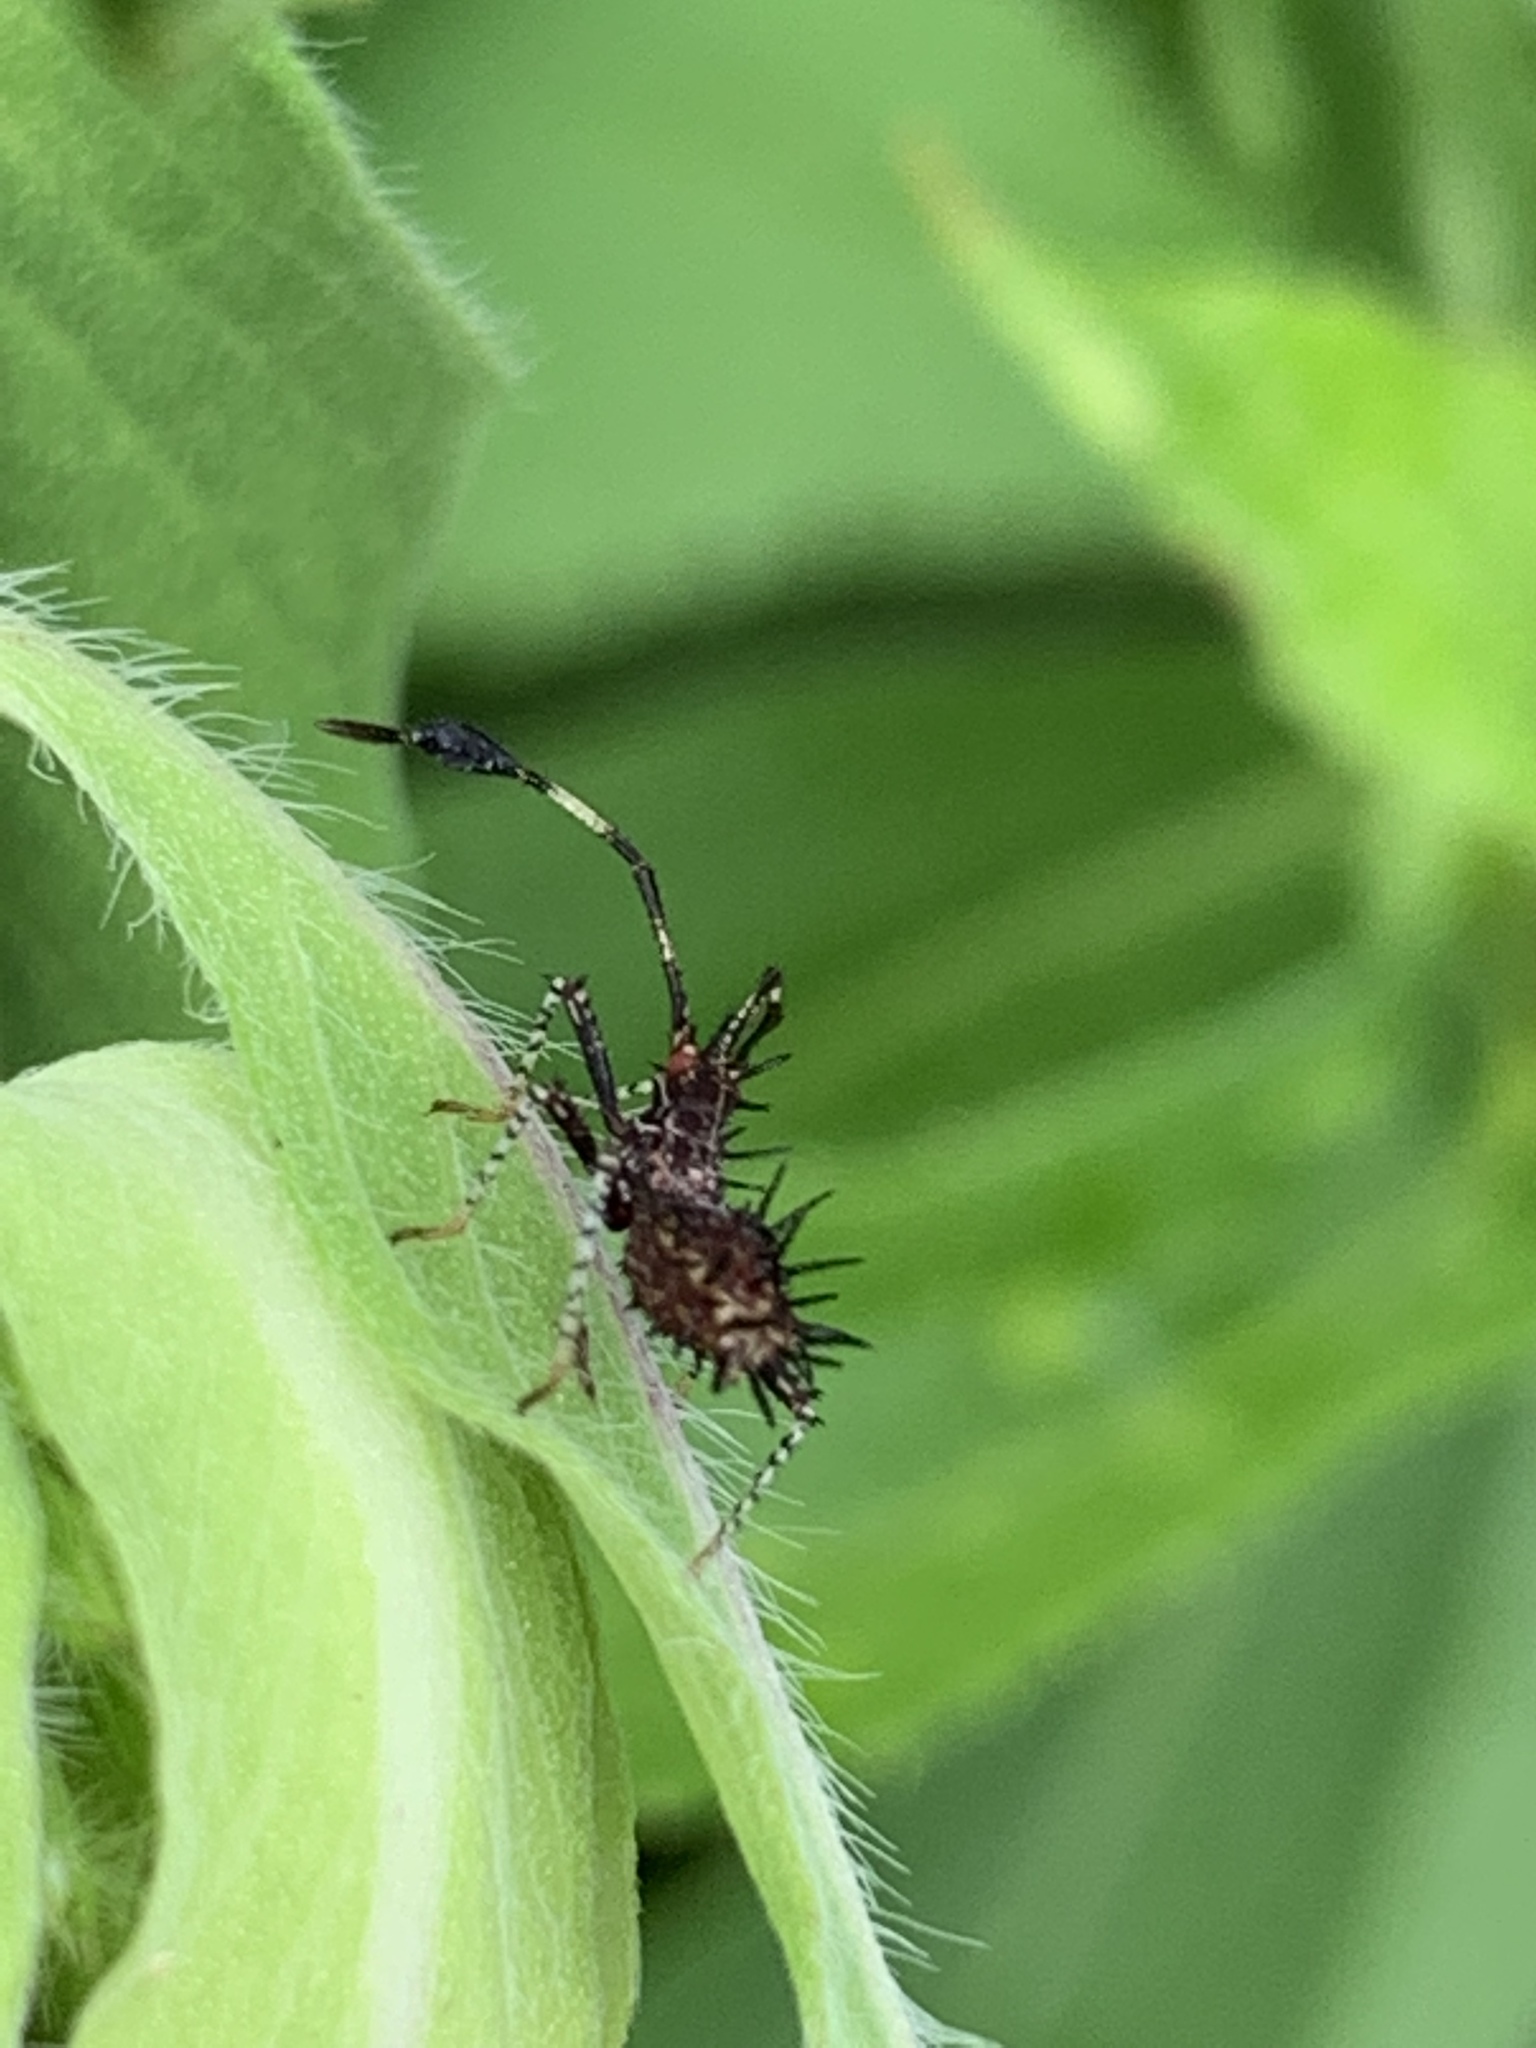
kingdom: Animalia
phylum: Arthropoda
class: Insecta
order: Hemiptera
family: Coreidae
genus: Euthochtha
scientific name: Euthochtha galeator
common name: Helmeted squash bug
